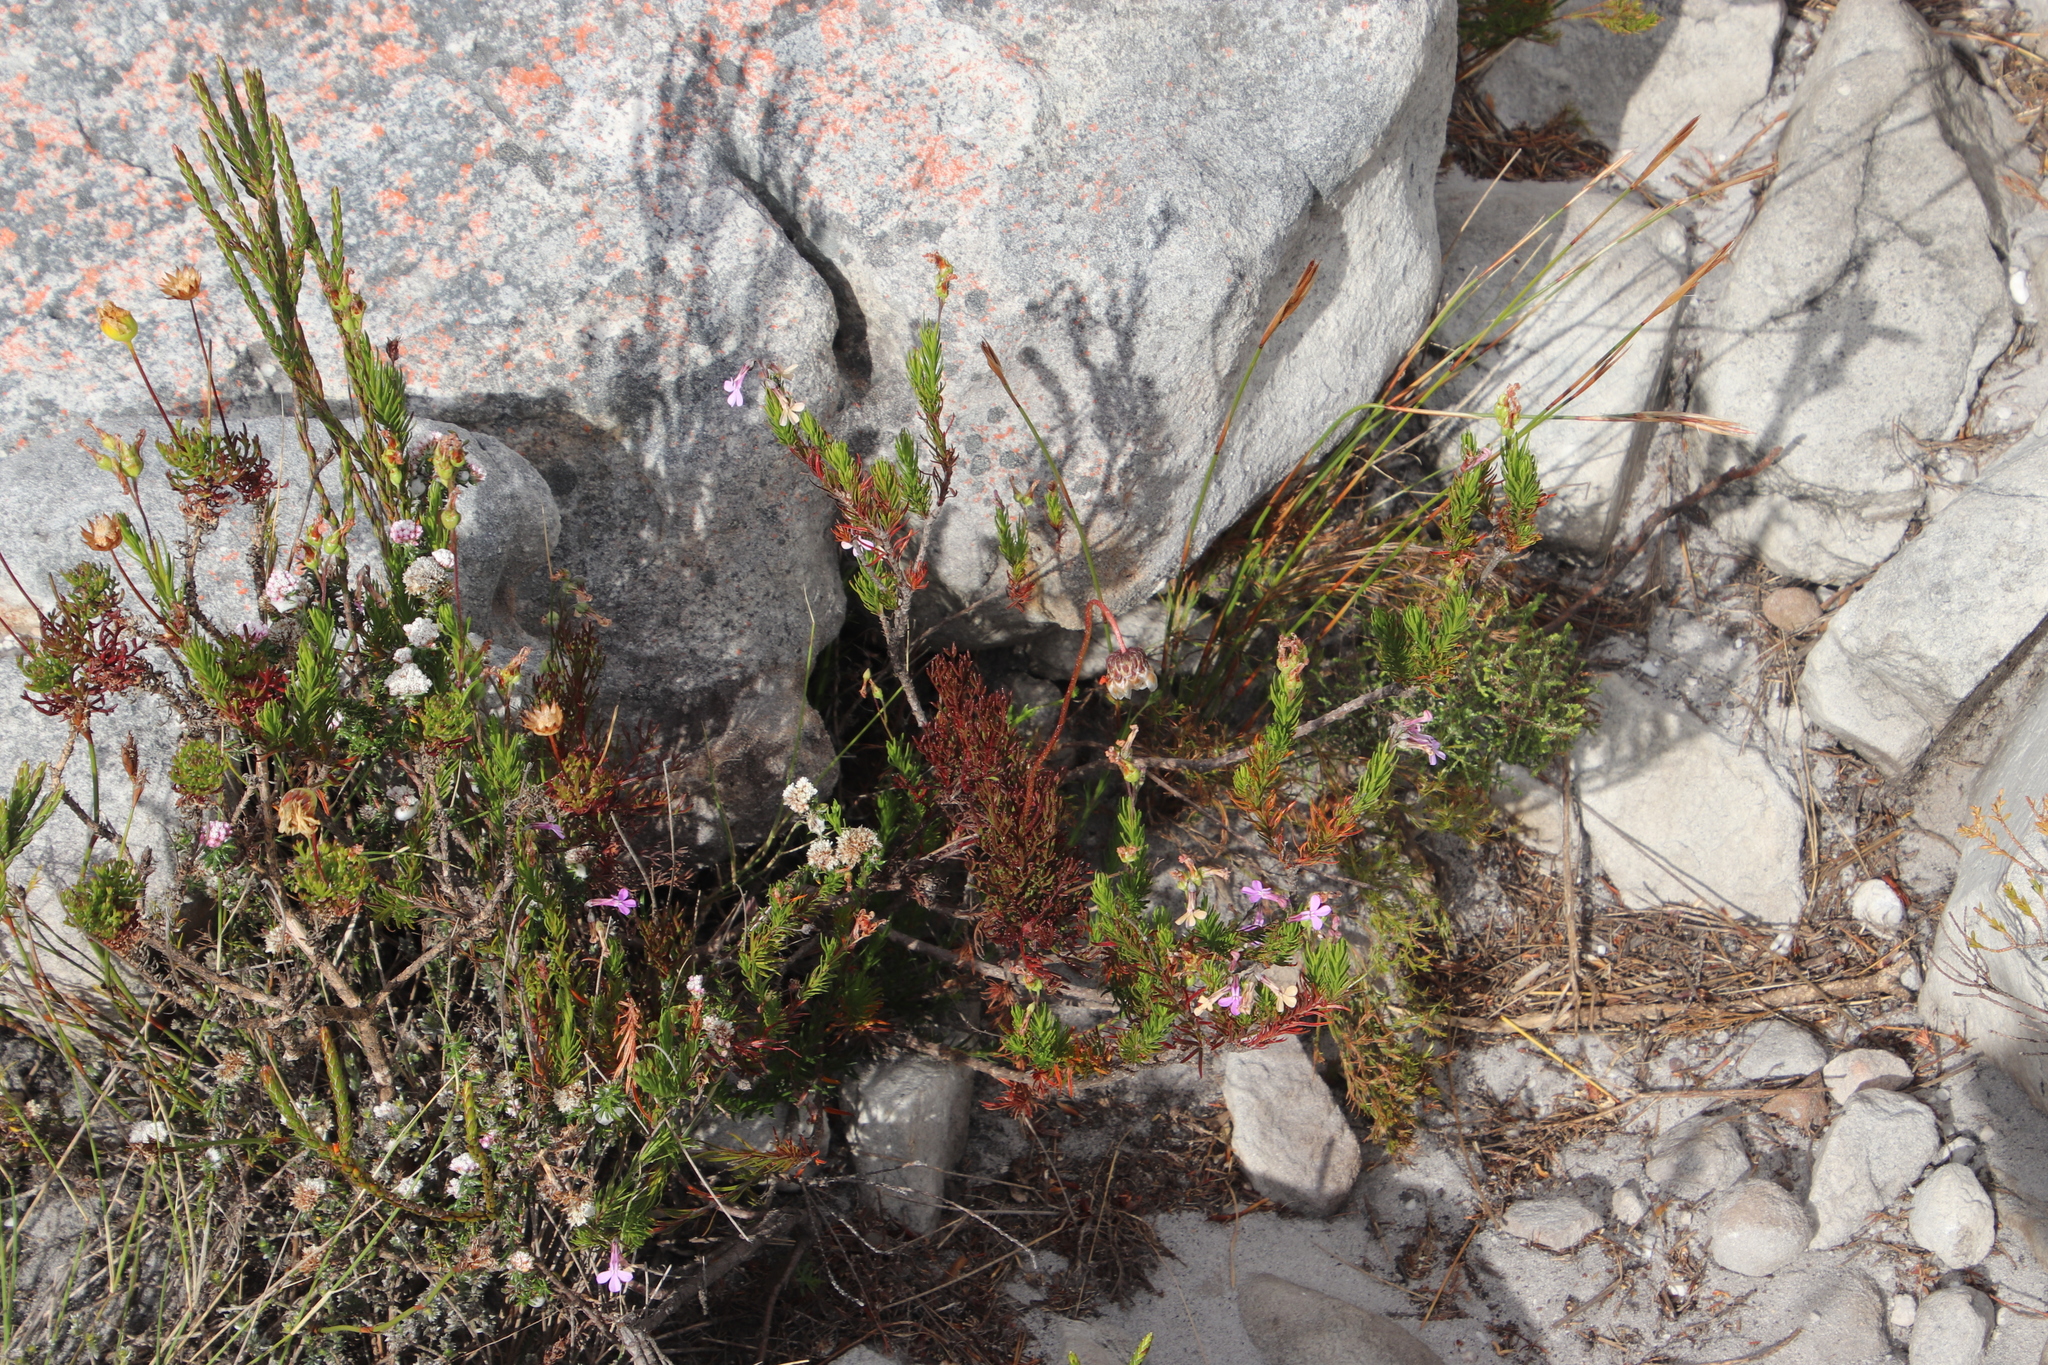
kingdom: Plantae
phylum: Tracheophyta
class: Magnoliopsida
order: Asterales
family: Campanulaceae
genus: Lobelia
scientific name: Lobelia pinifolia
